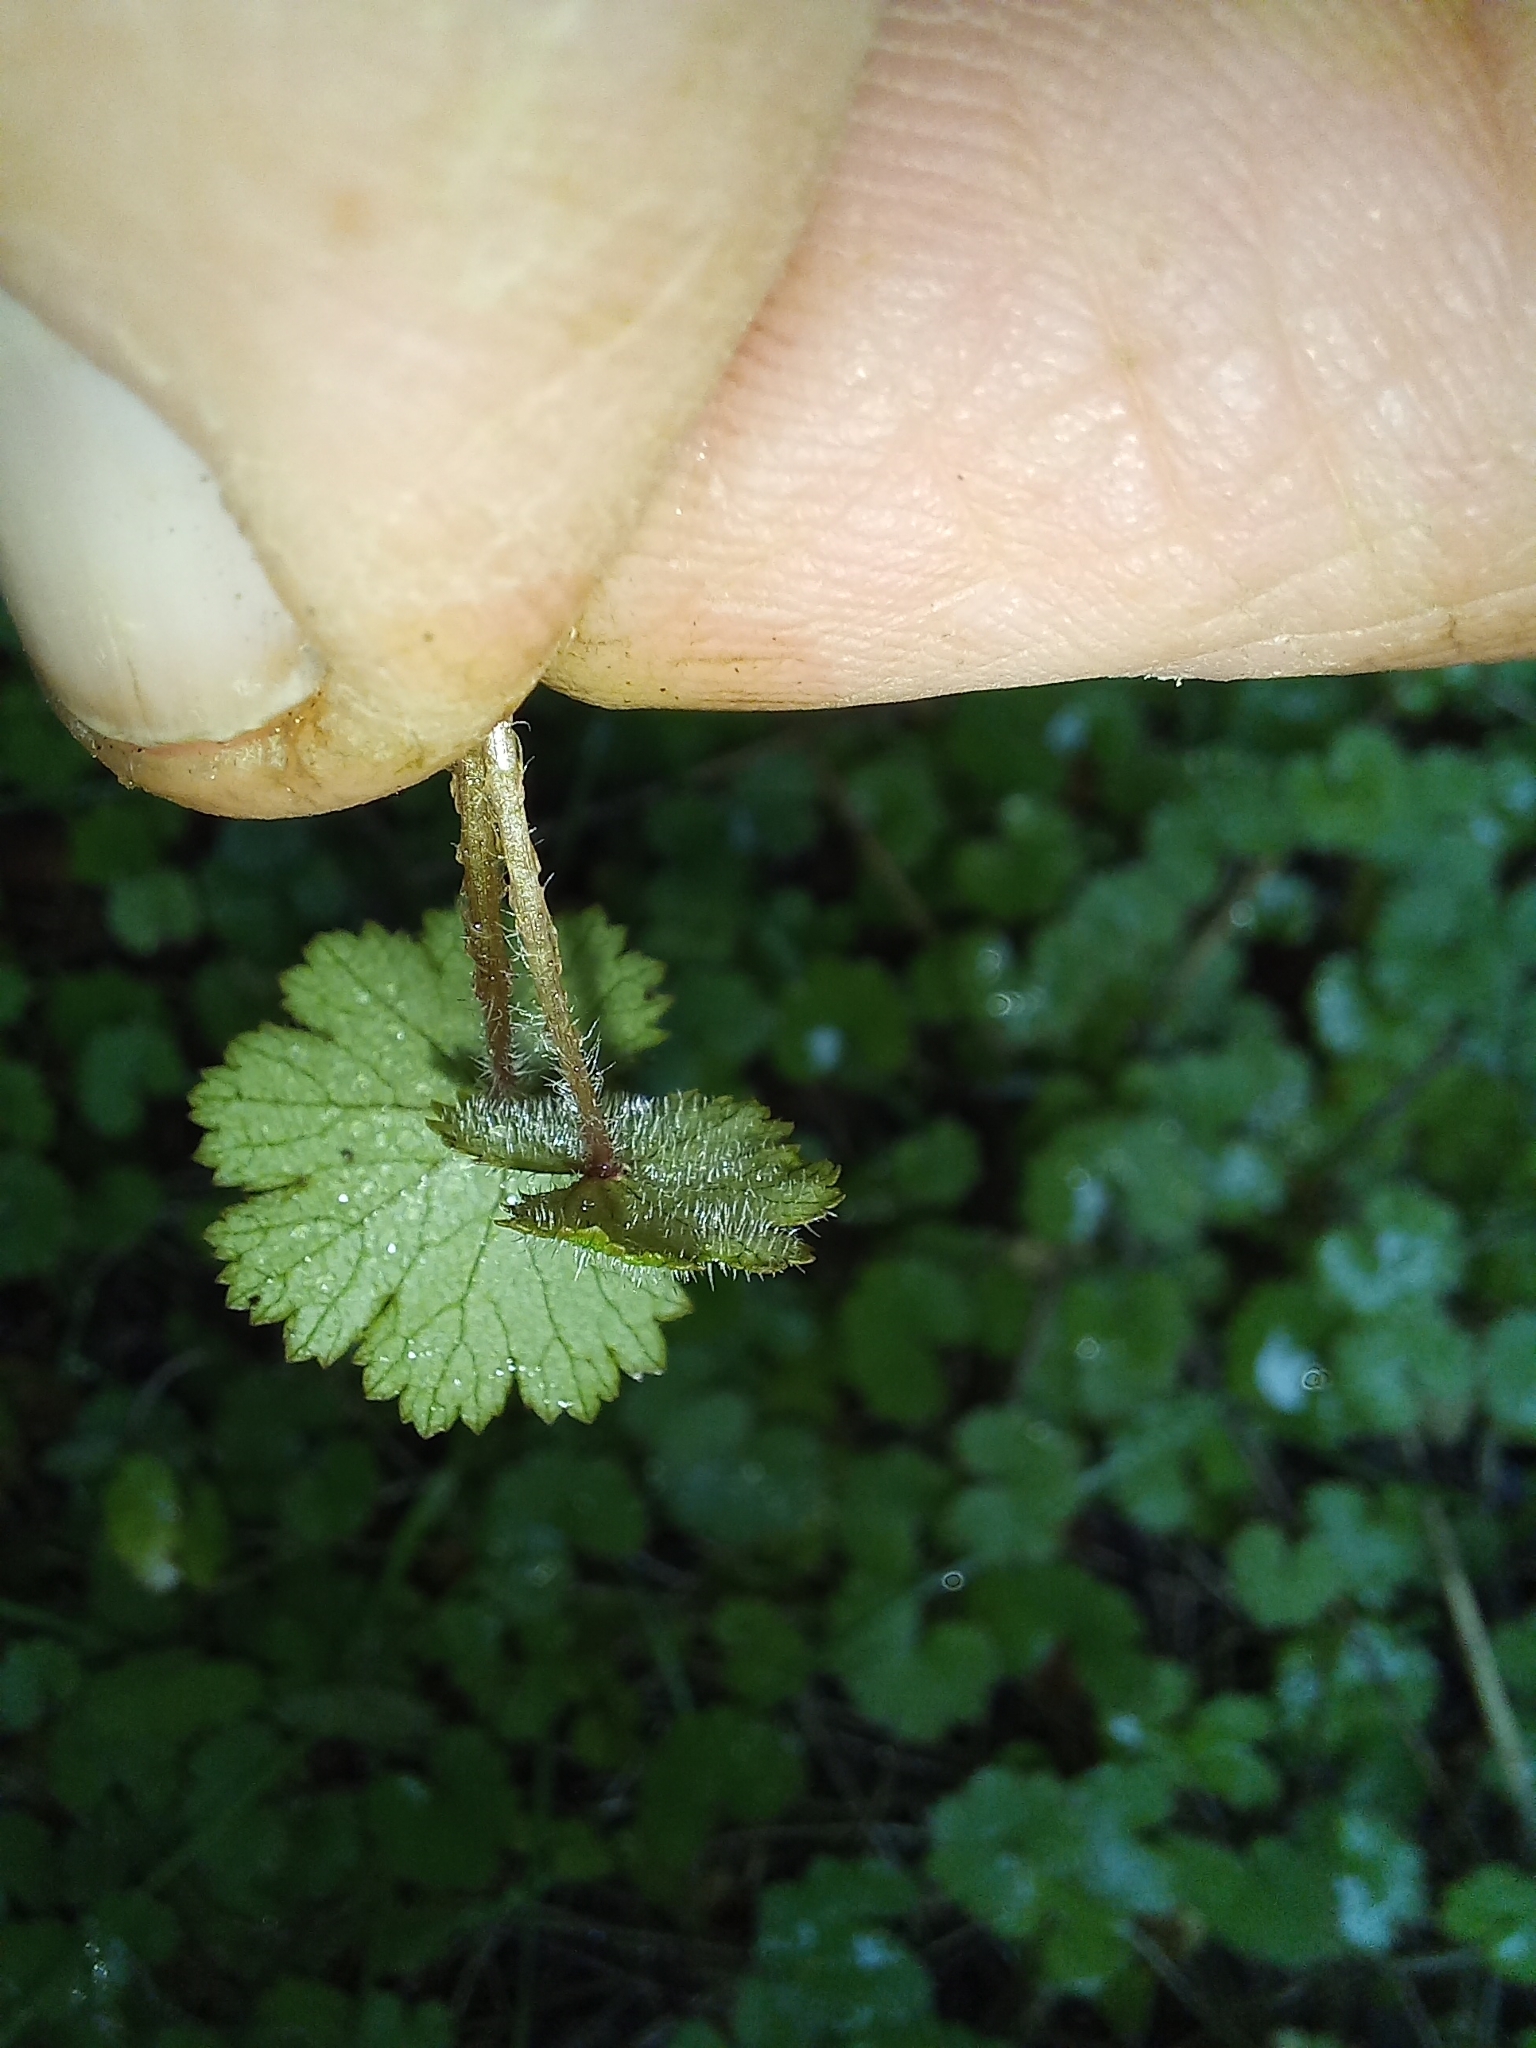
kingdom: Plantae
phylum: Tracheophyta
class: Magnoliopsida
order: Apiales
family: Araliaceae
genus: Hydrocotyle
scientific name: Hydrocotyle moschata
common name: Hairy pennywort
